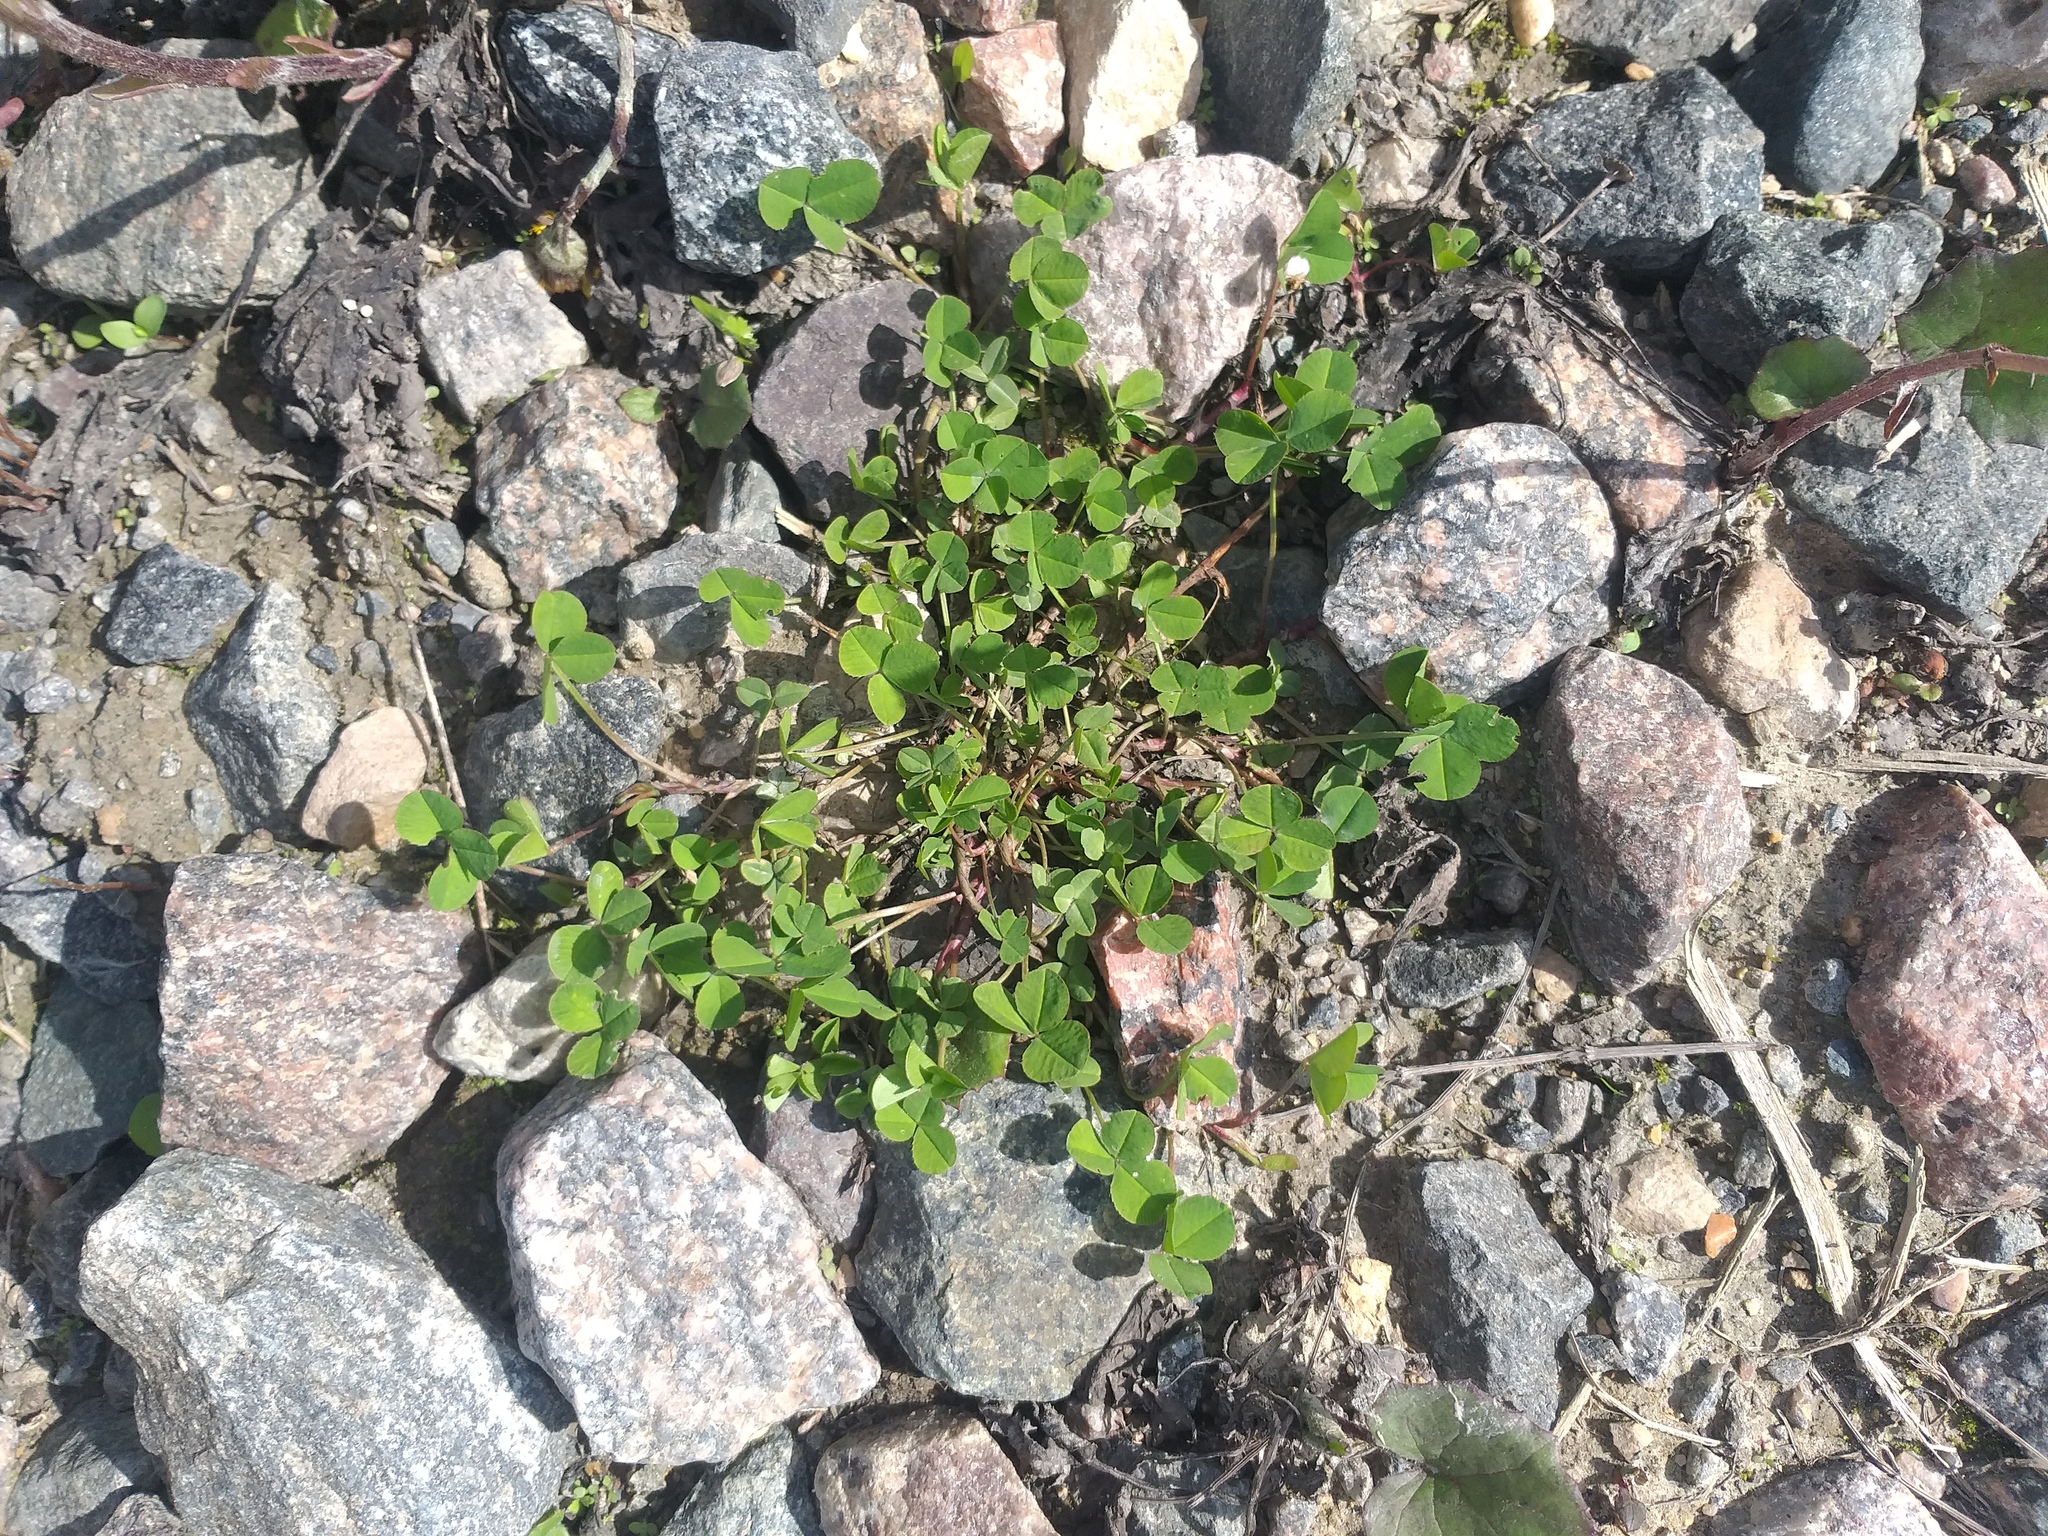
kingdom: Plantae
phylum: Tracheophyta
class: Magnoliopsida
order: Fabales
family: Fabaceae
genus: Trifolium
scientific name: Trifolium repens
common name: White clover
